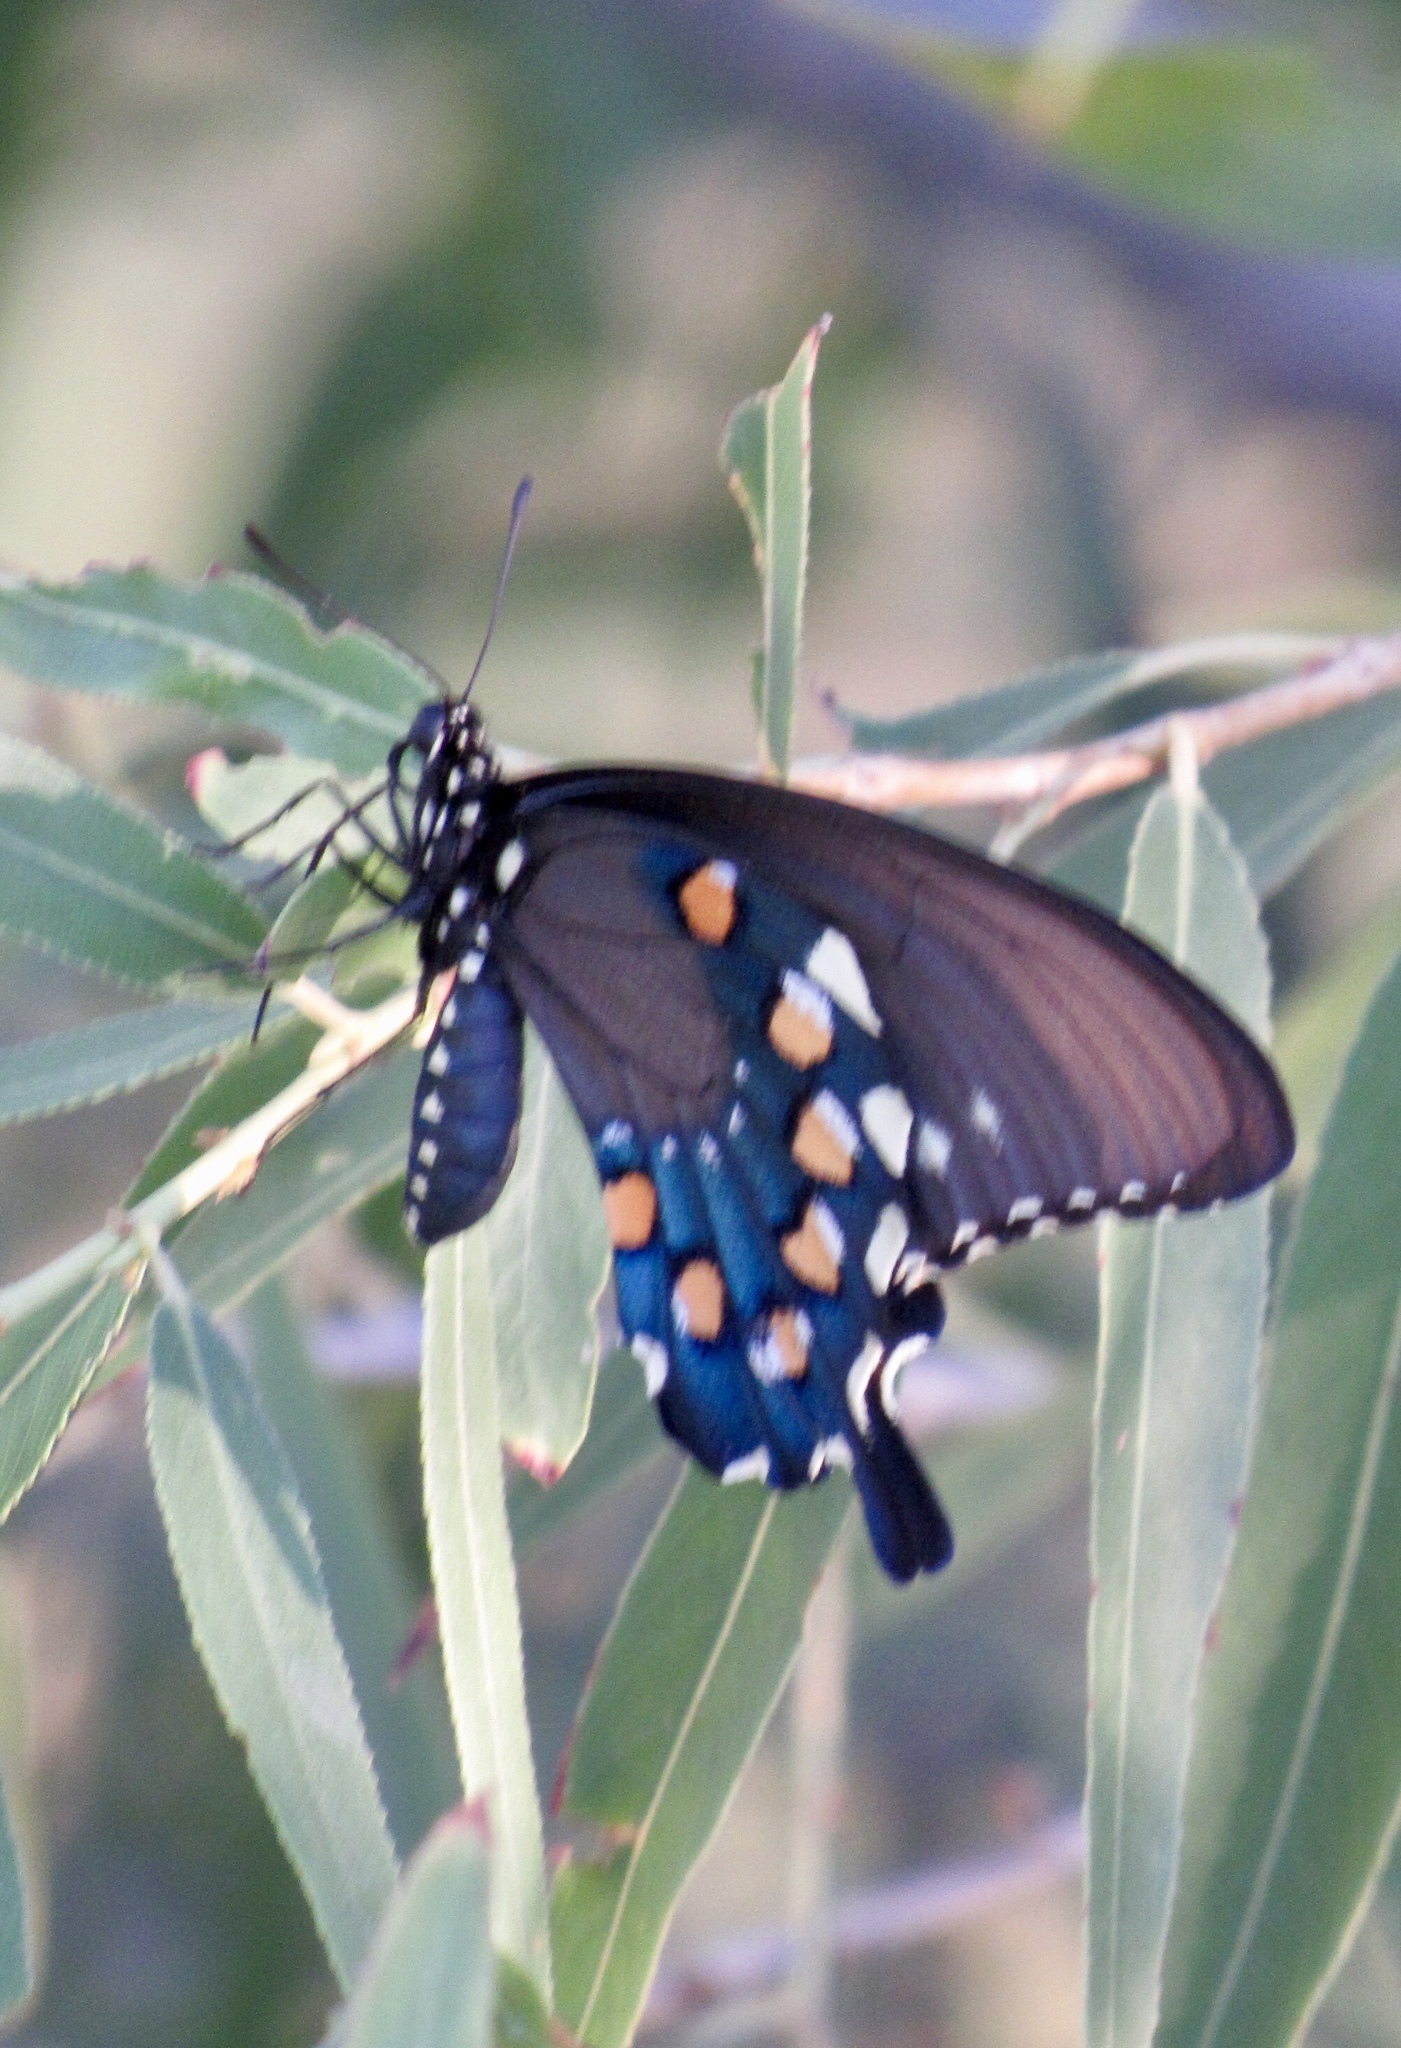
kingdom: Animalia
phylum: Arthropoda
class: Insecta
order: Lepidoptera
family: Papilionidae
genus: Battus
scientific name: Battus philenor
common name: Pipevine swallowtail
